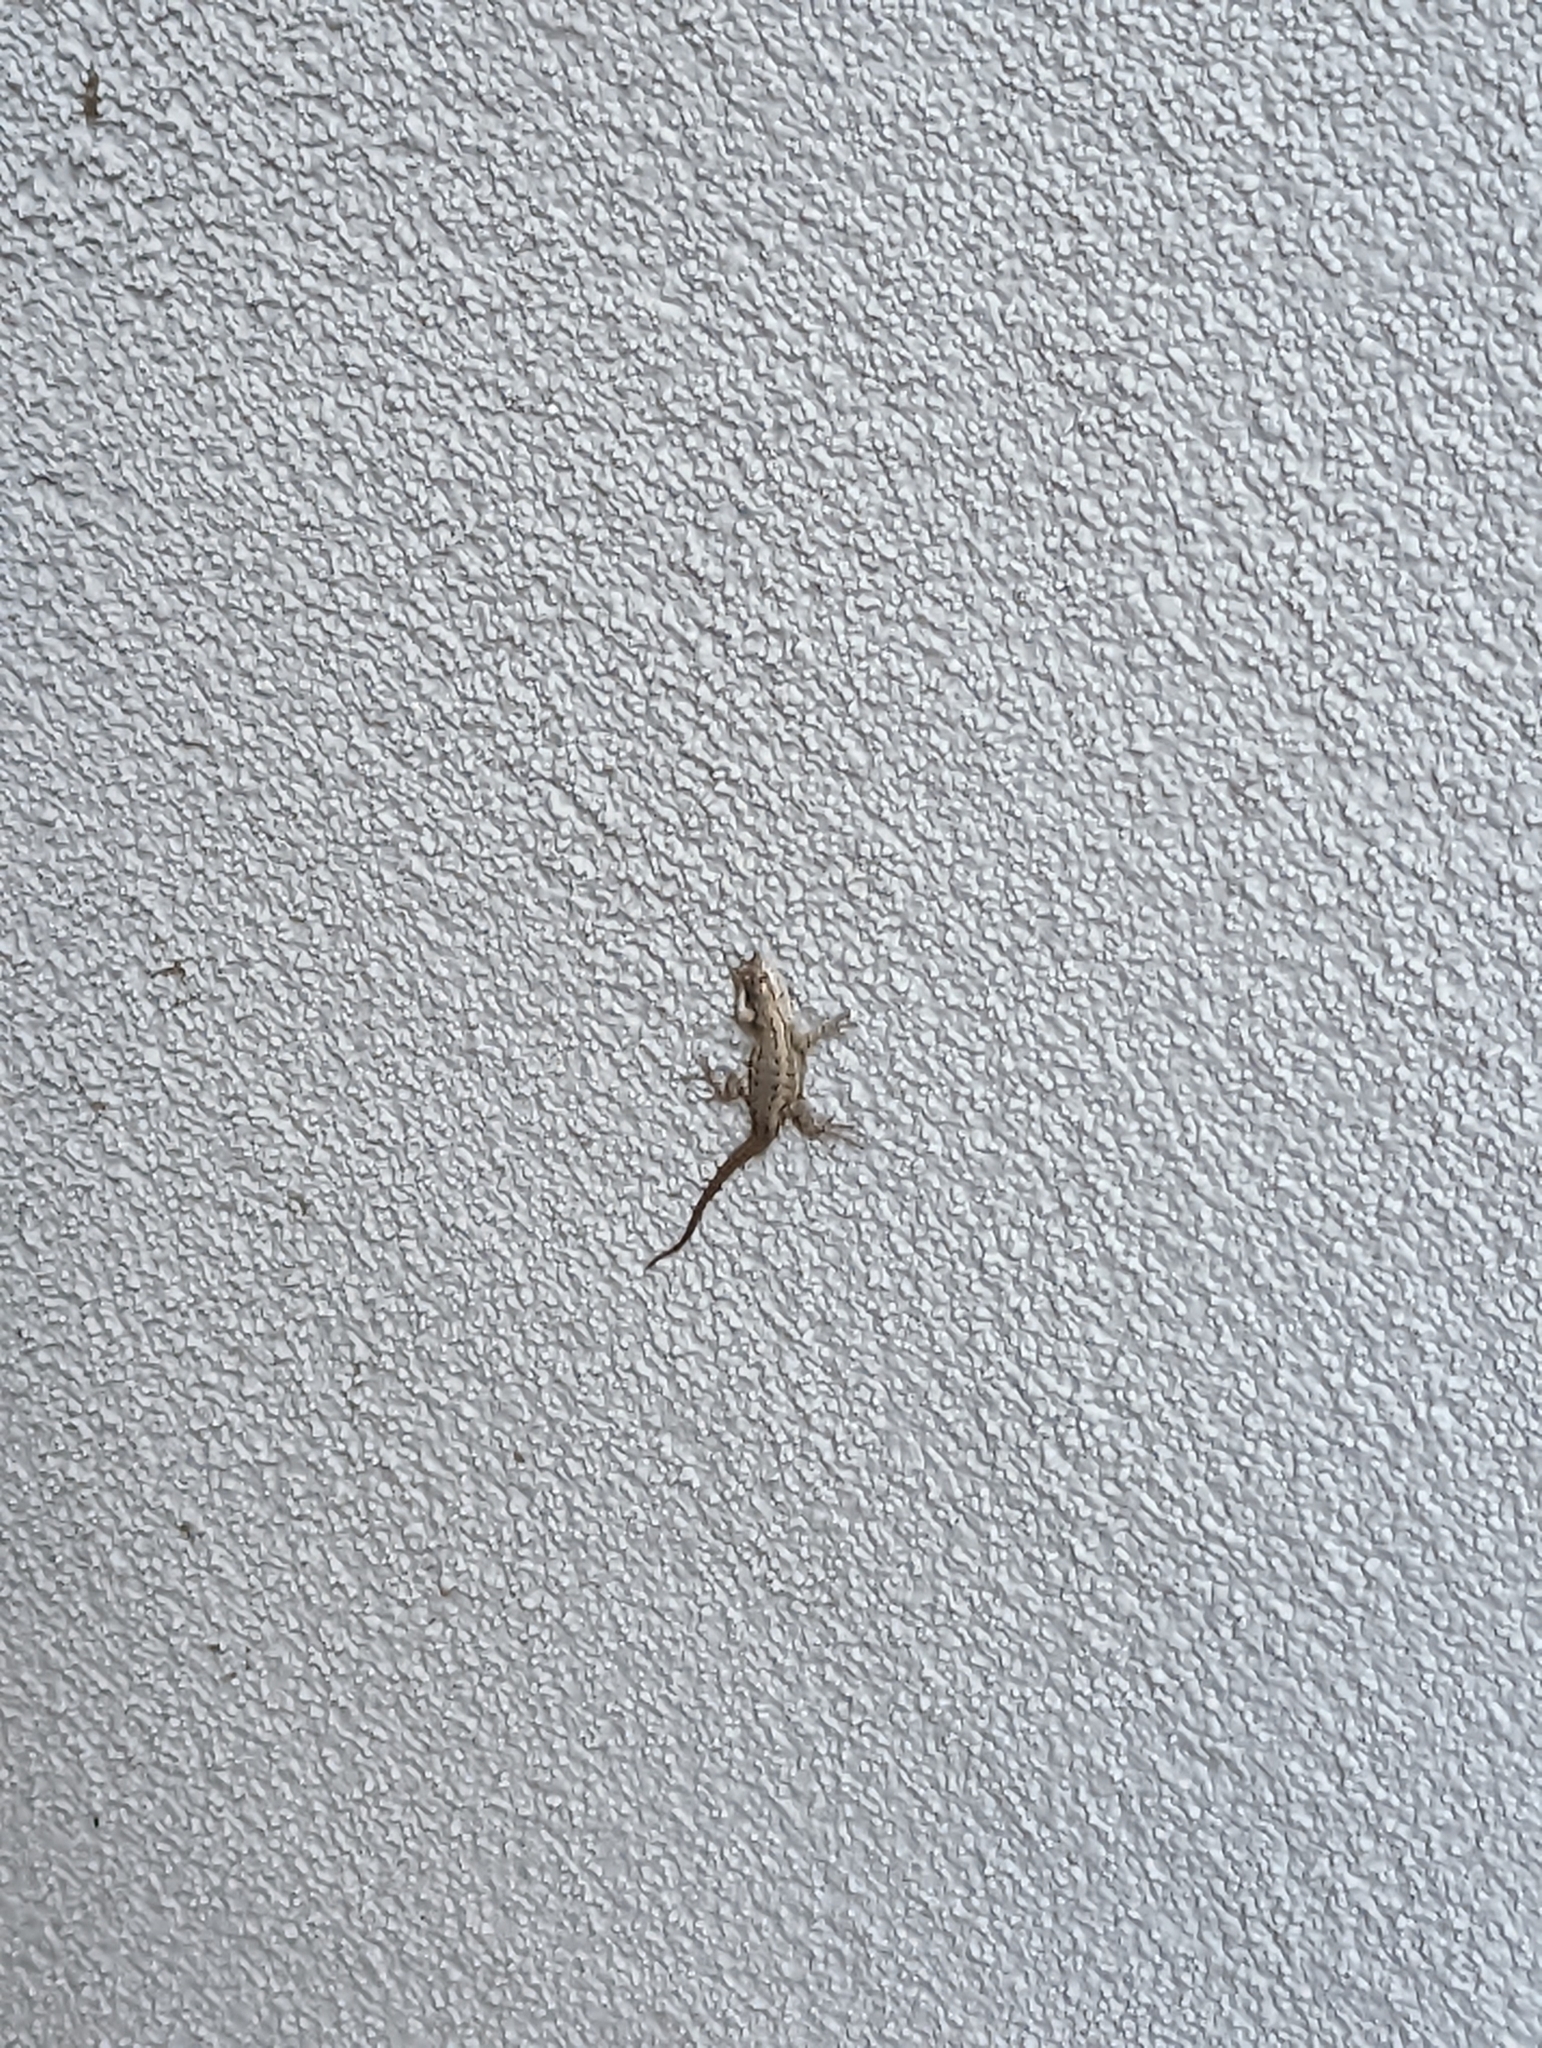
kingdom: Animalia
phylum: Chordata
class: Squamata
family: Phrynosomatidae
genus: Sceloporus
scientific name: Sceloporus occidentalis
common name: Western fence lizard
